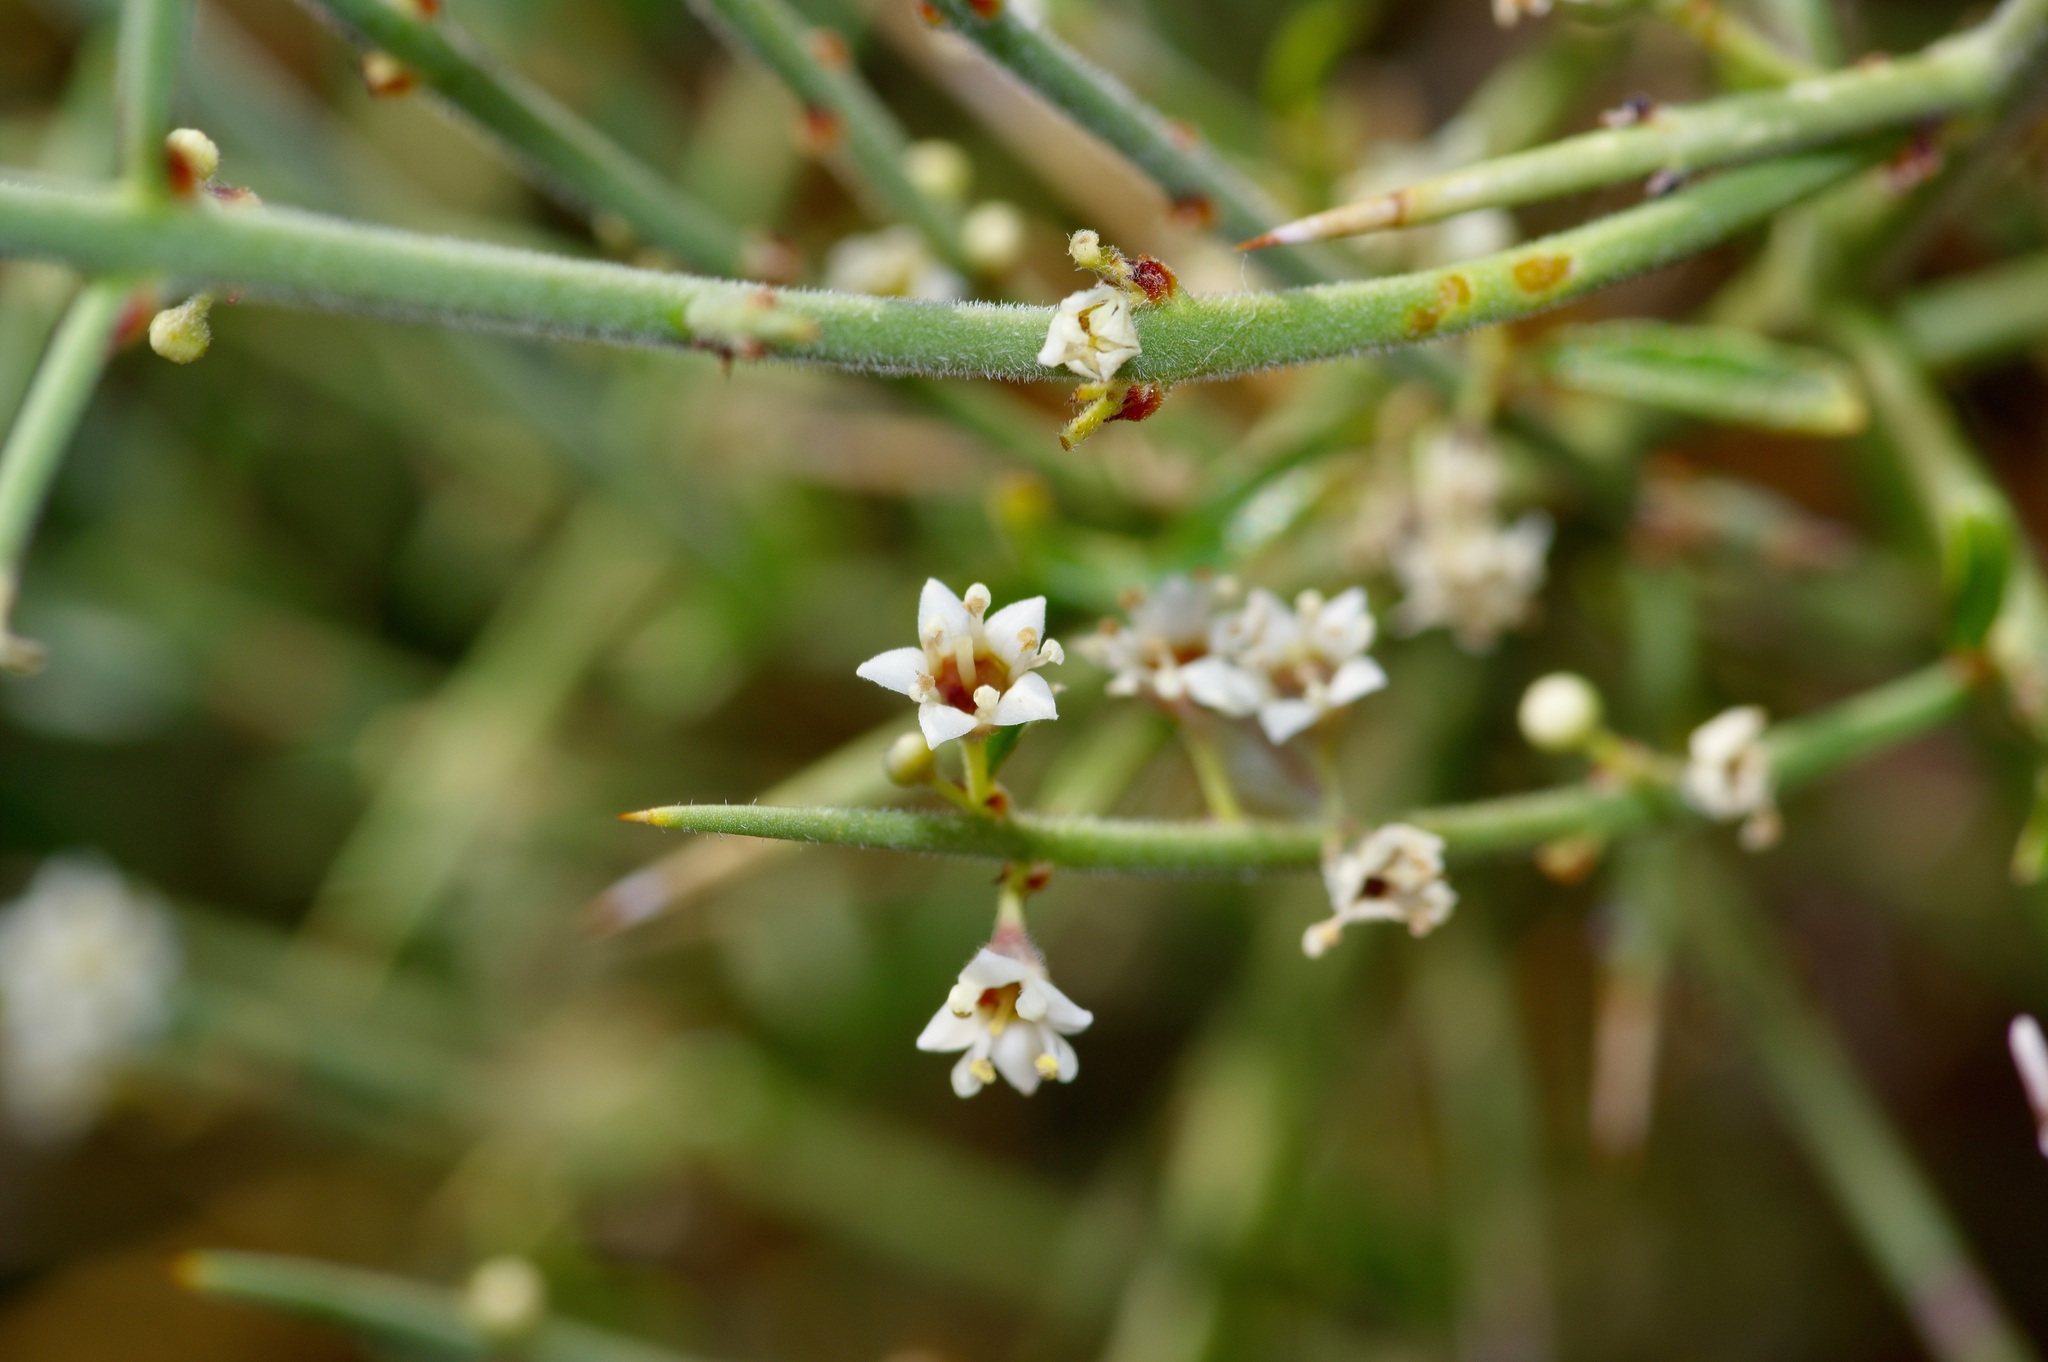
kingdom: Plantae
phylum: Tracheophyta
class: Magnoliopsida
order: Rosales
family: Rhamnaceae
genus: Adolphia
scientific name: Adolphia infesta
